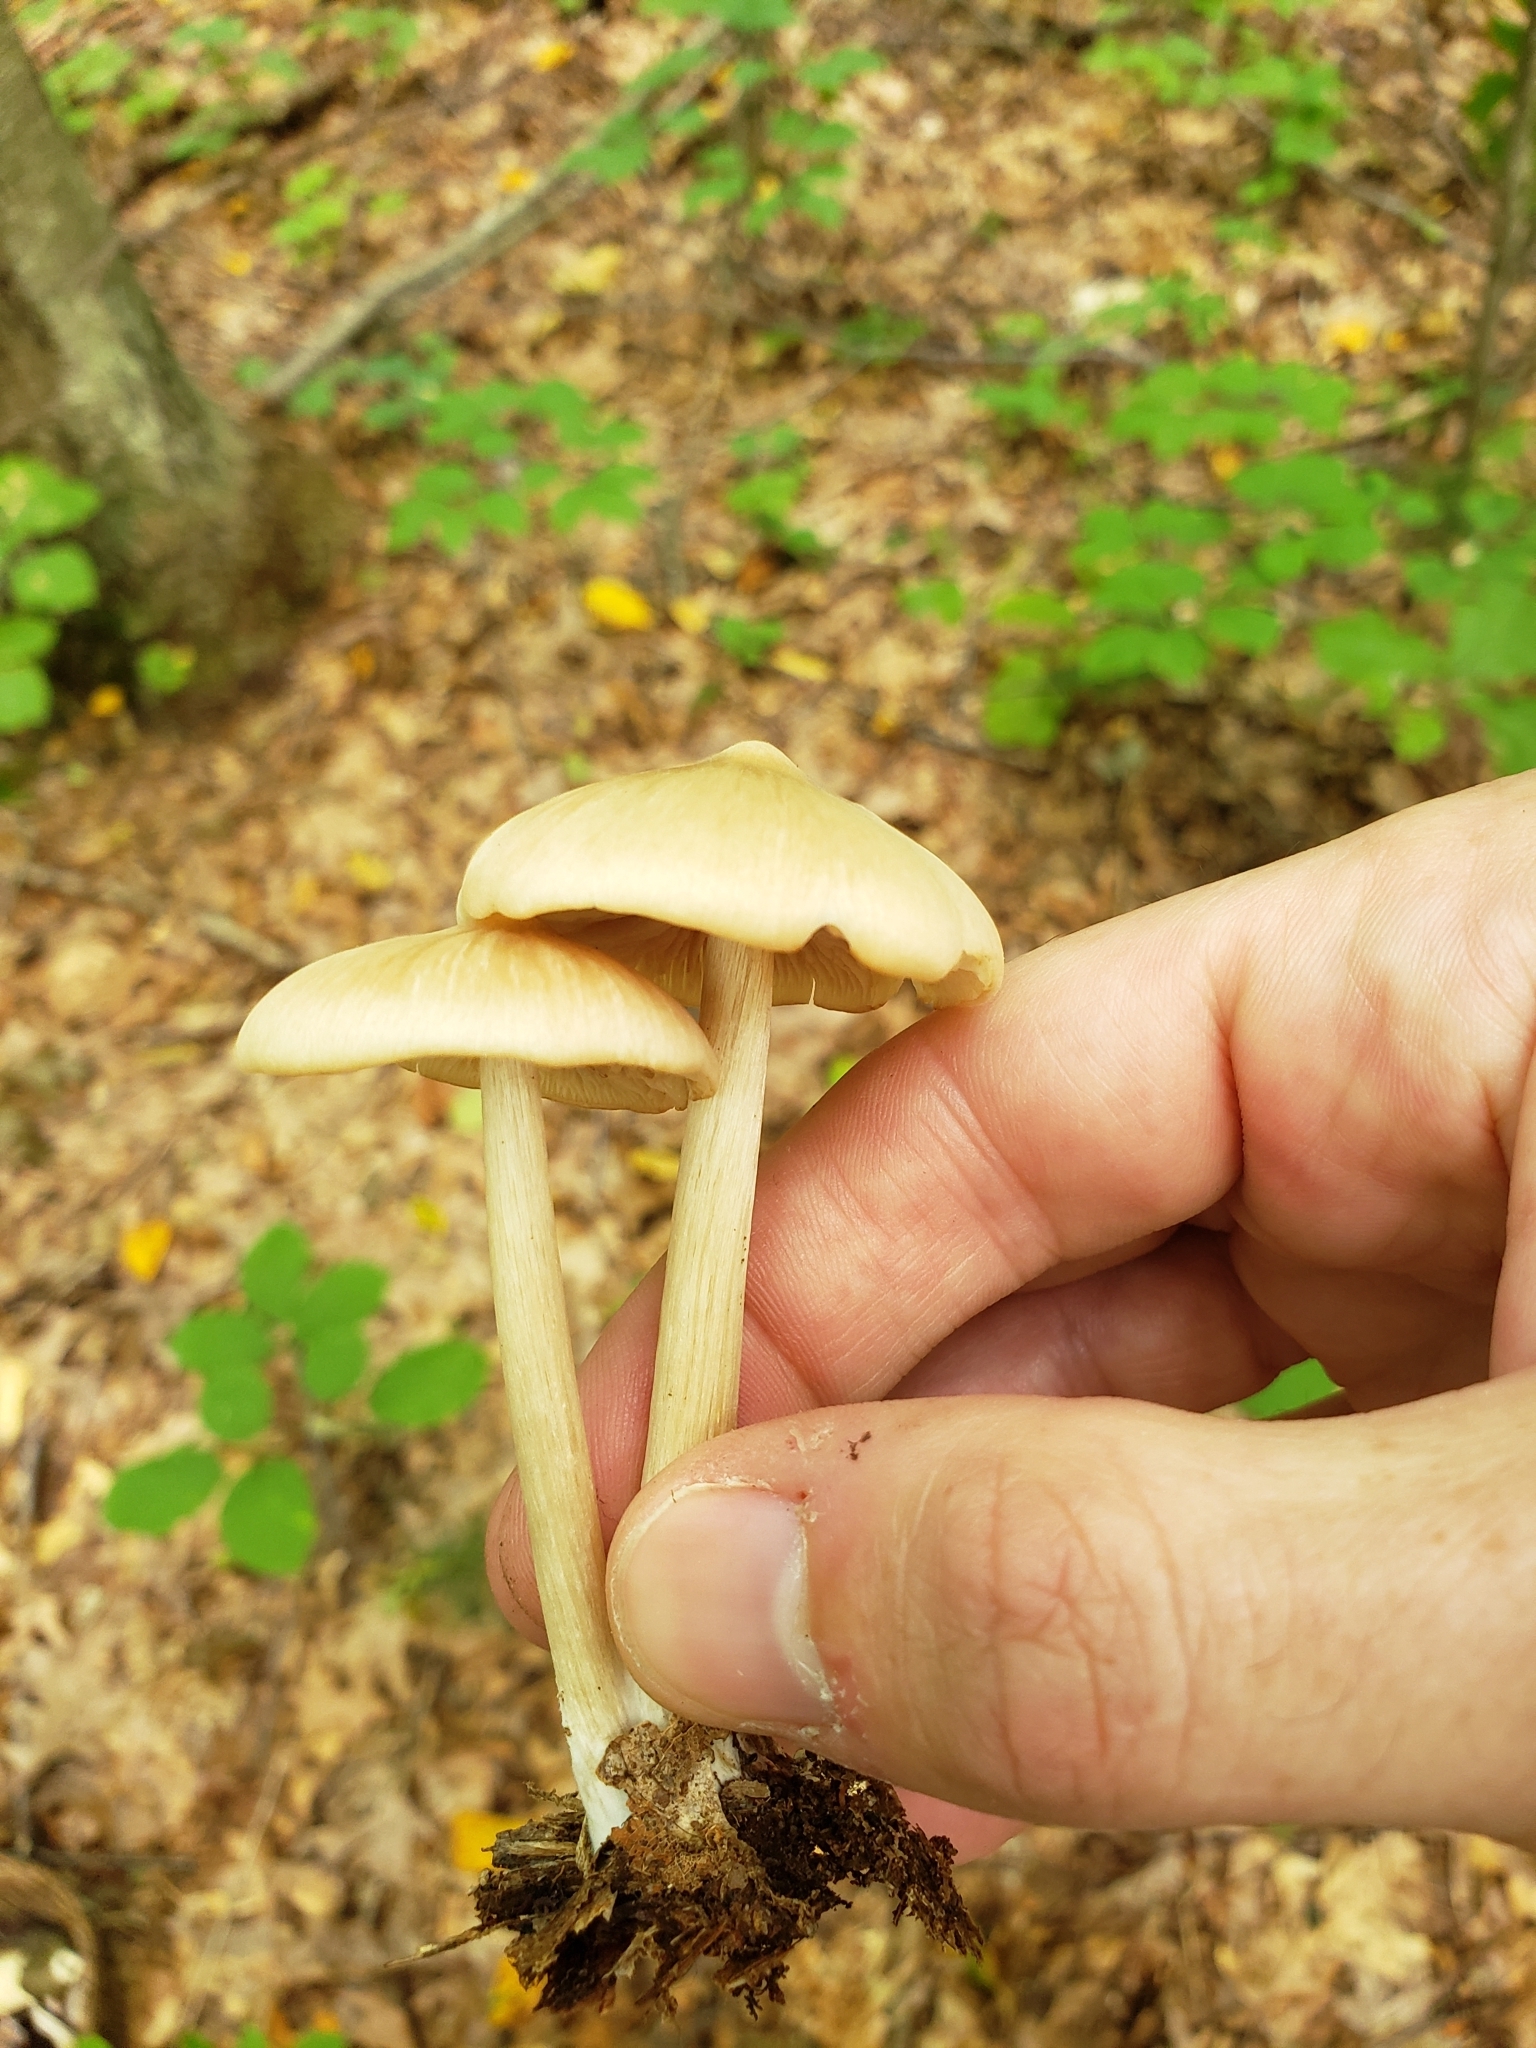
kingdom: Fungi
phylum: Basidiomycota
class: Agaricomycetes
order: Agaricales
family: Entolomataceae
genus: Entoloma
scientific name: Entoloma strictius
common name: Straight-stalked entoloma
